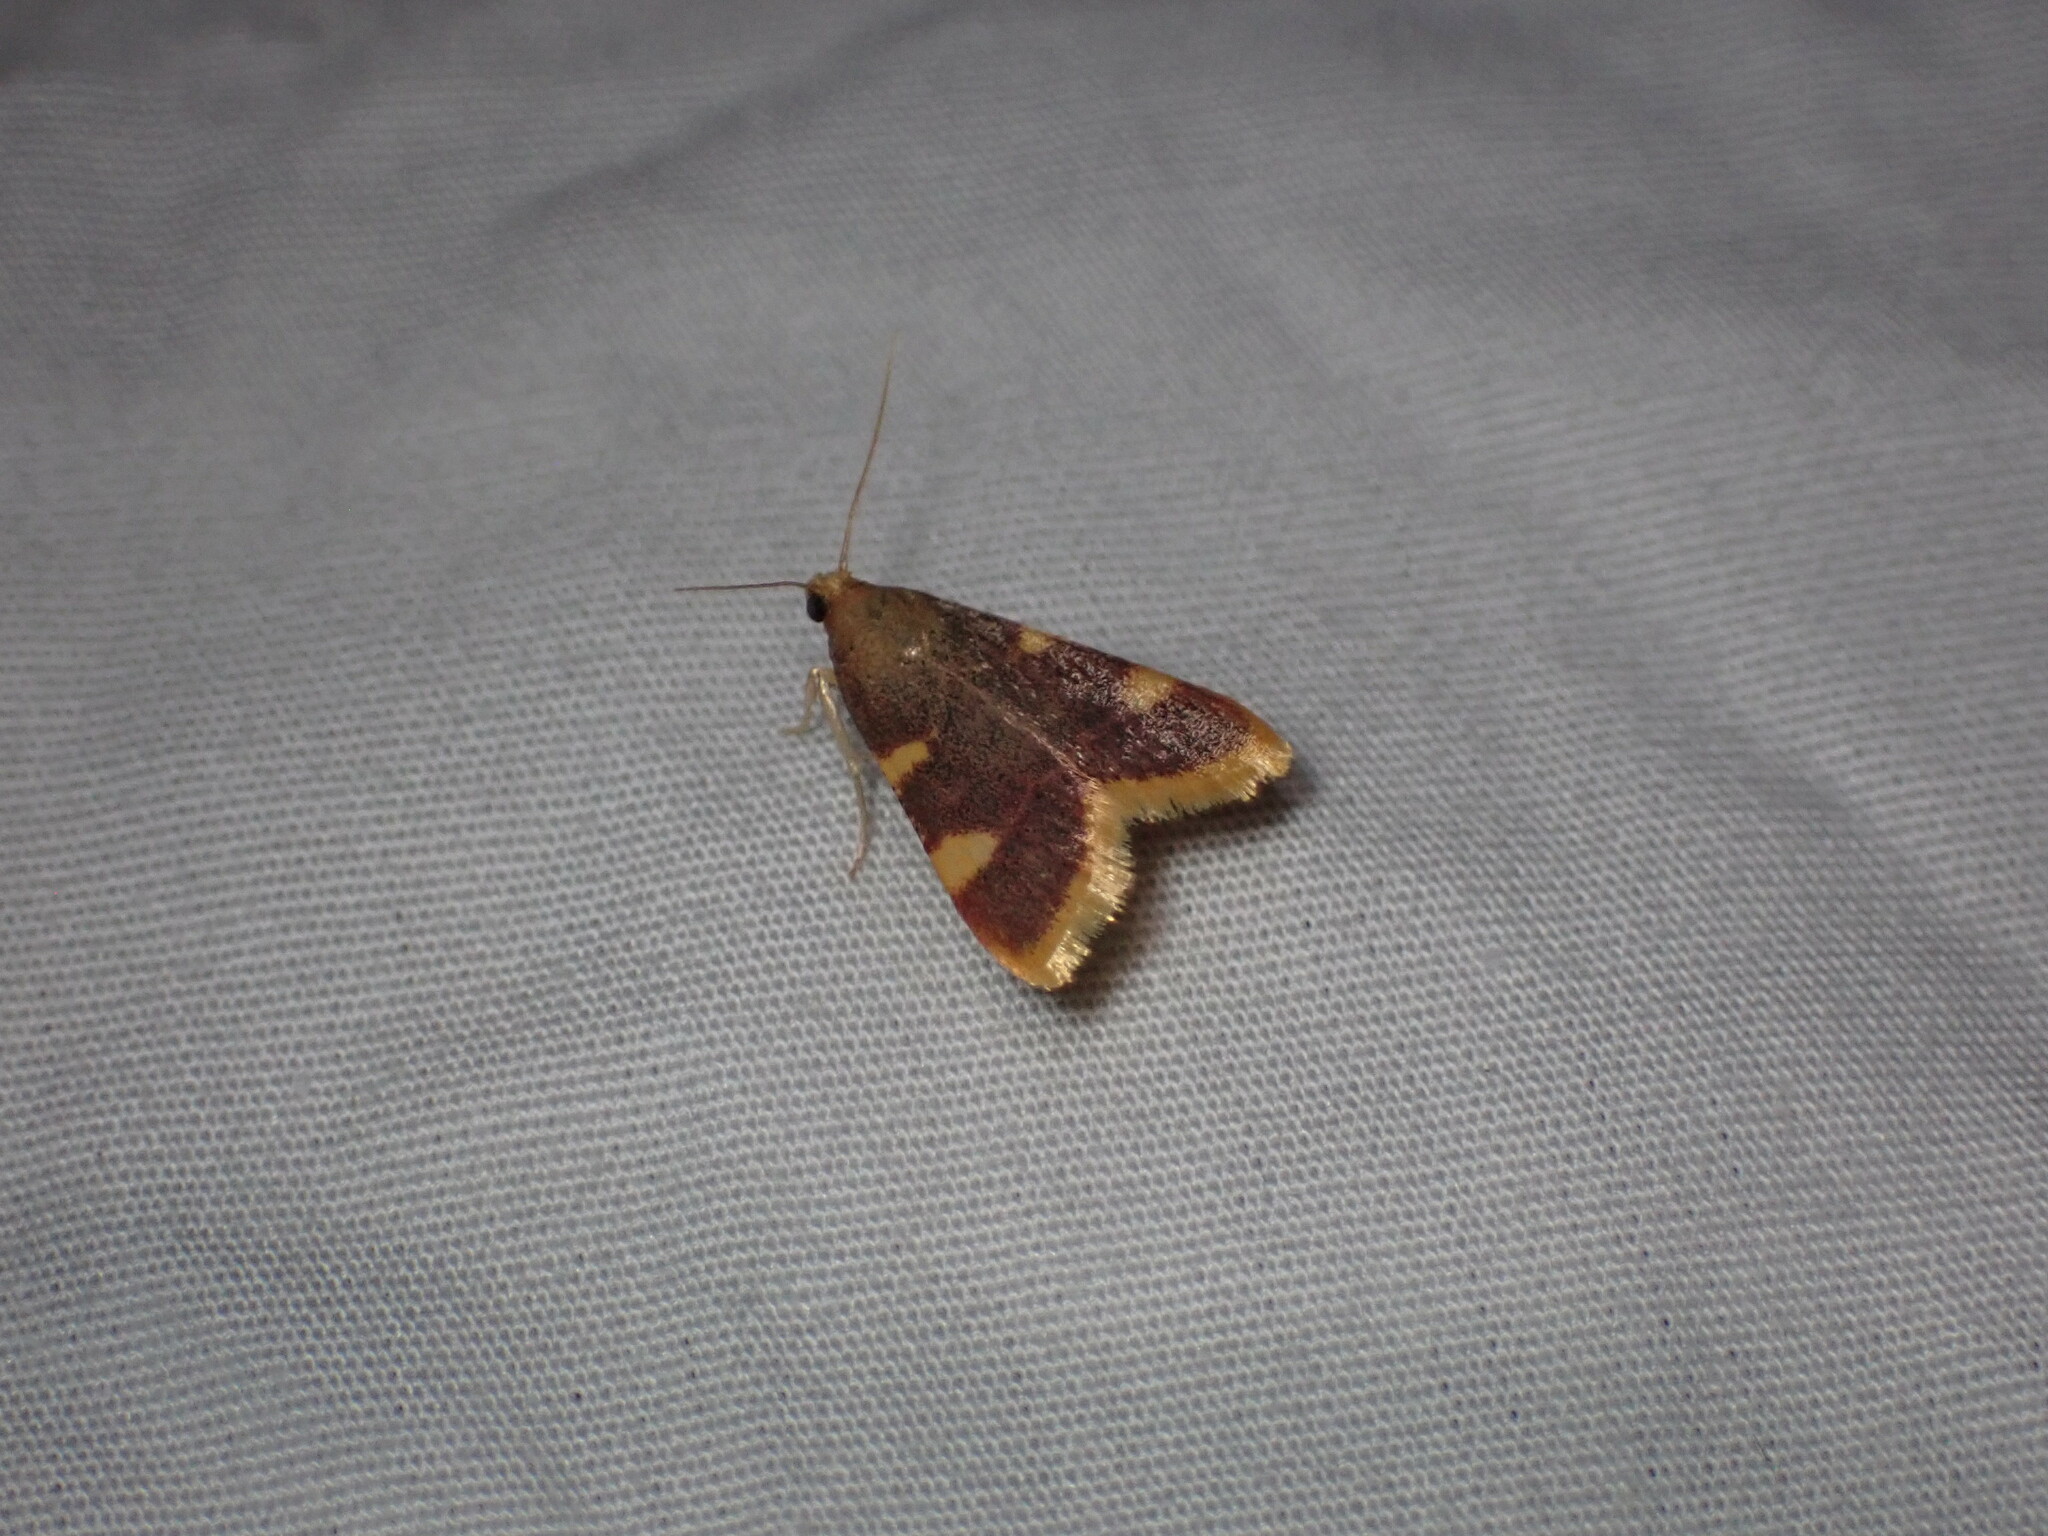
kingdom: Animalia
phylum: Arthropoda
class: Insecta
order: Lepidoptera
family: Pyralidae
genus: Hypsopygia
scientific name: Hypsopygia costalis
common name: Gold triangle
